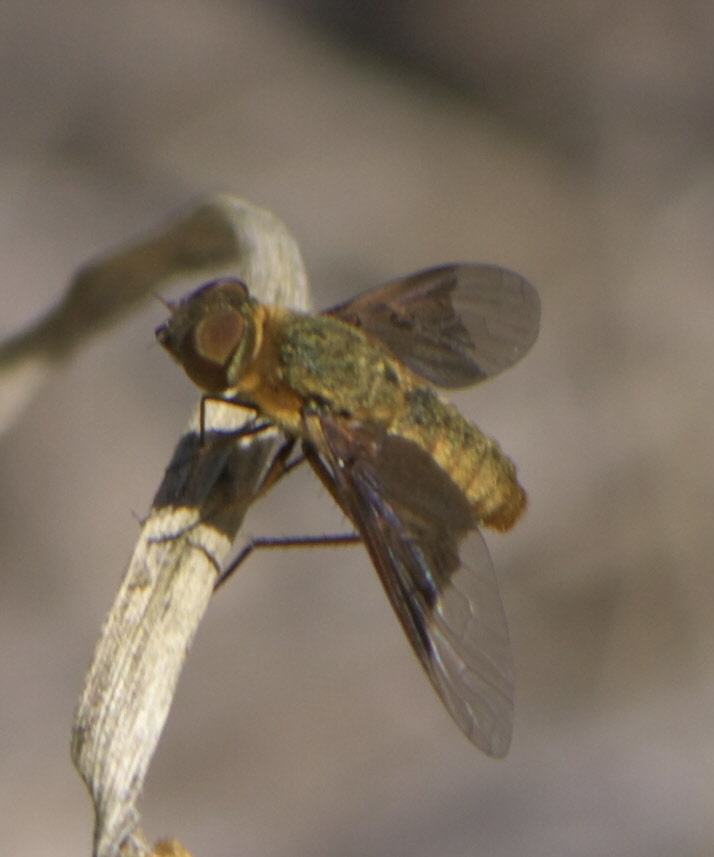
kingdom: Animalia
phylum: Arthropoda
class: Insecta
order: Diptera
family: Bombyliidae
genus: Chrysanthrax
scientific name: Chrysanthrax cypris
